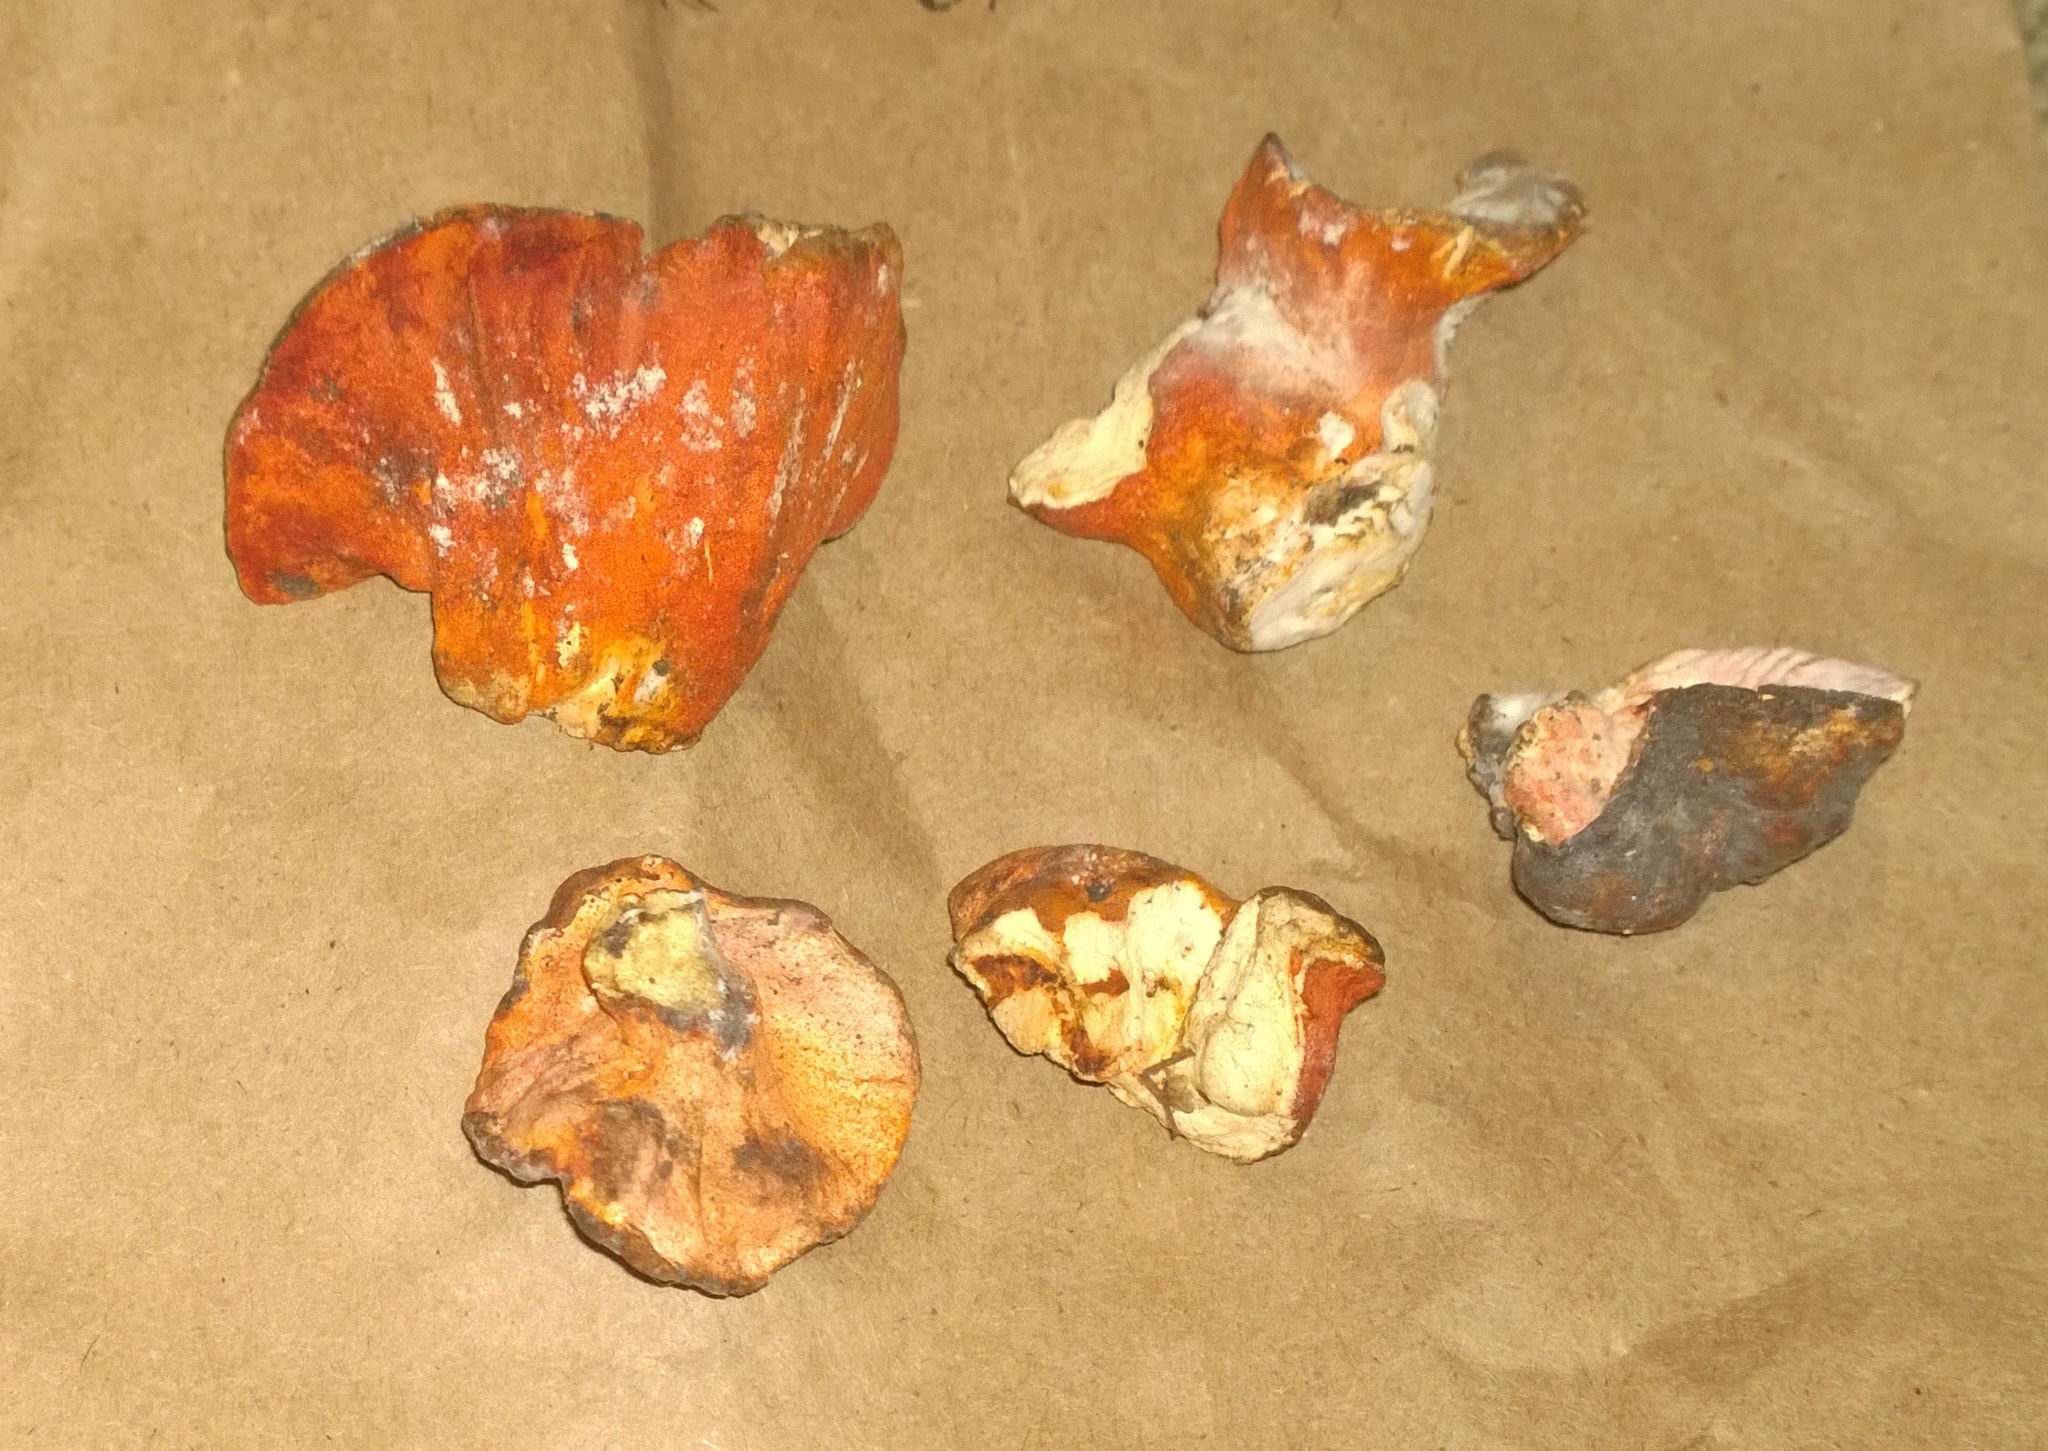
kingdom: Fungi
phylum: Ascomycota
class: Sordariomycetes
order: Hypocreales
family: Hypocreaceae
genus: Hypomyces
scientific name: Hypomyces lactifluorum
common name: Lobster mushroom
